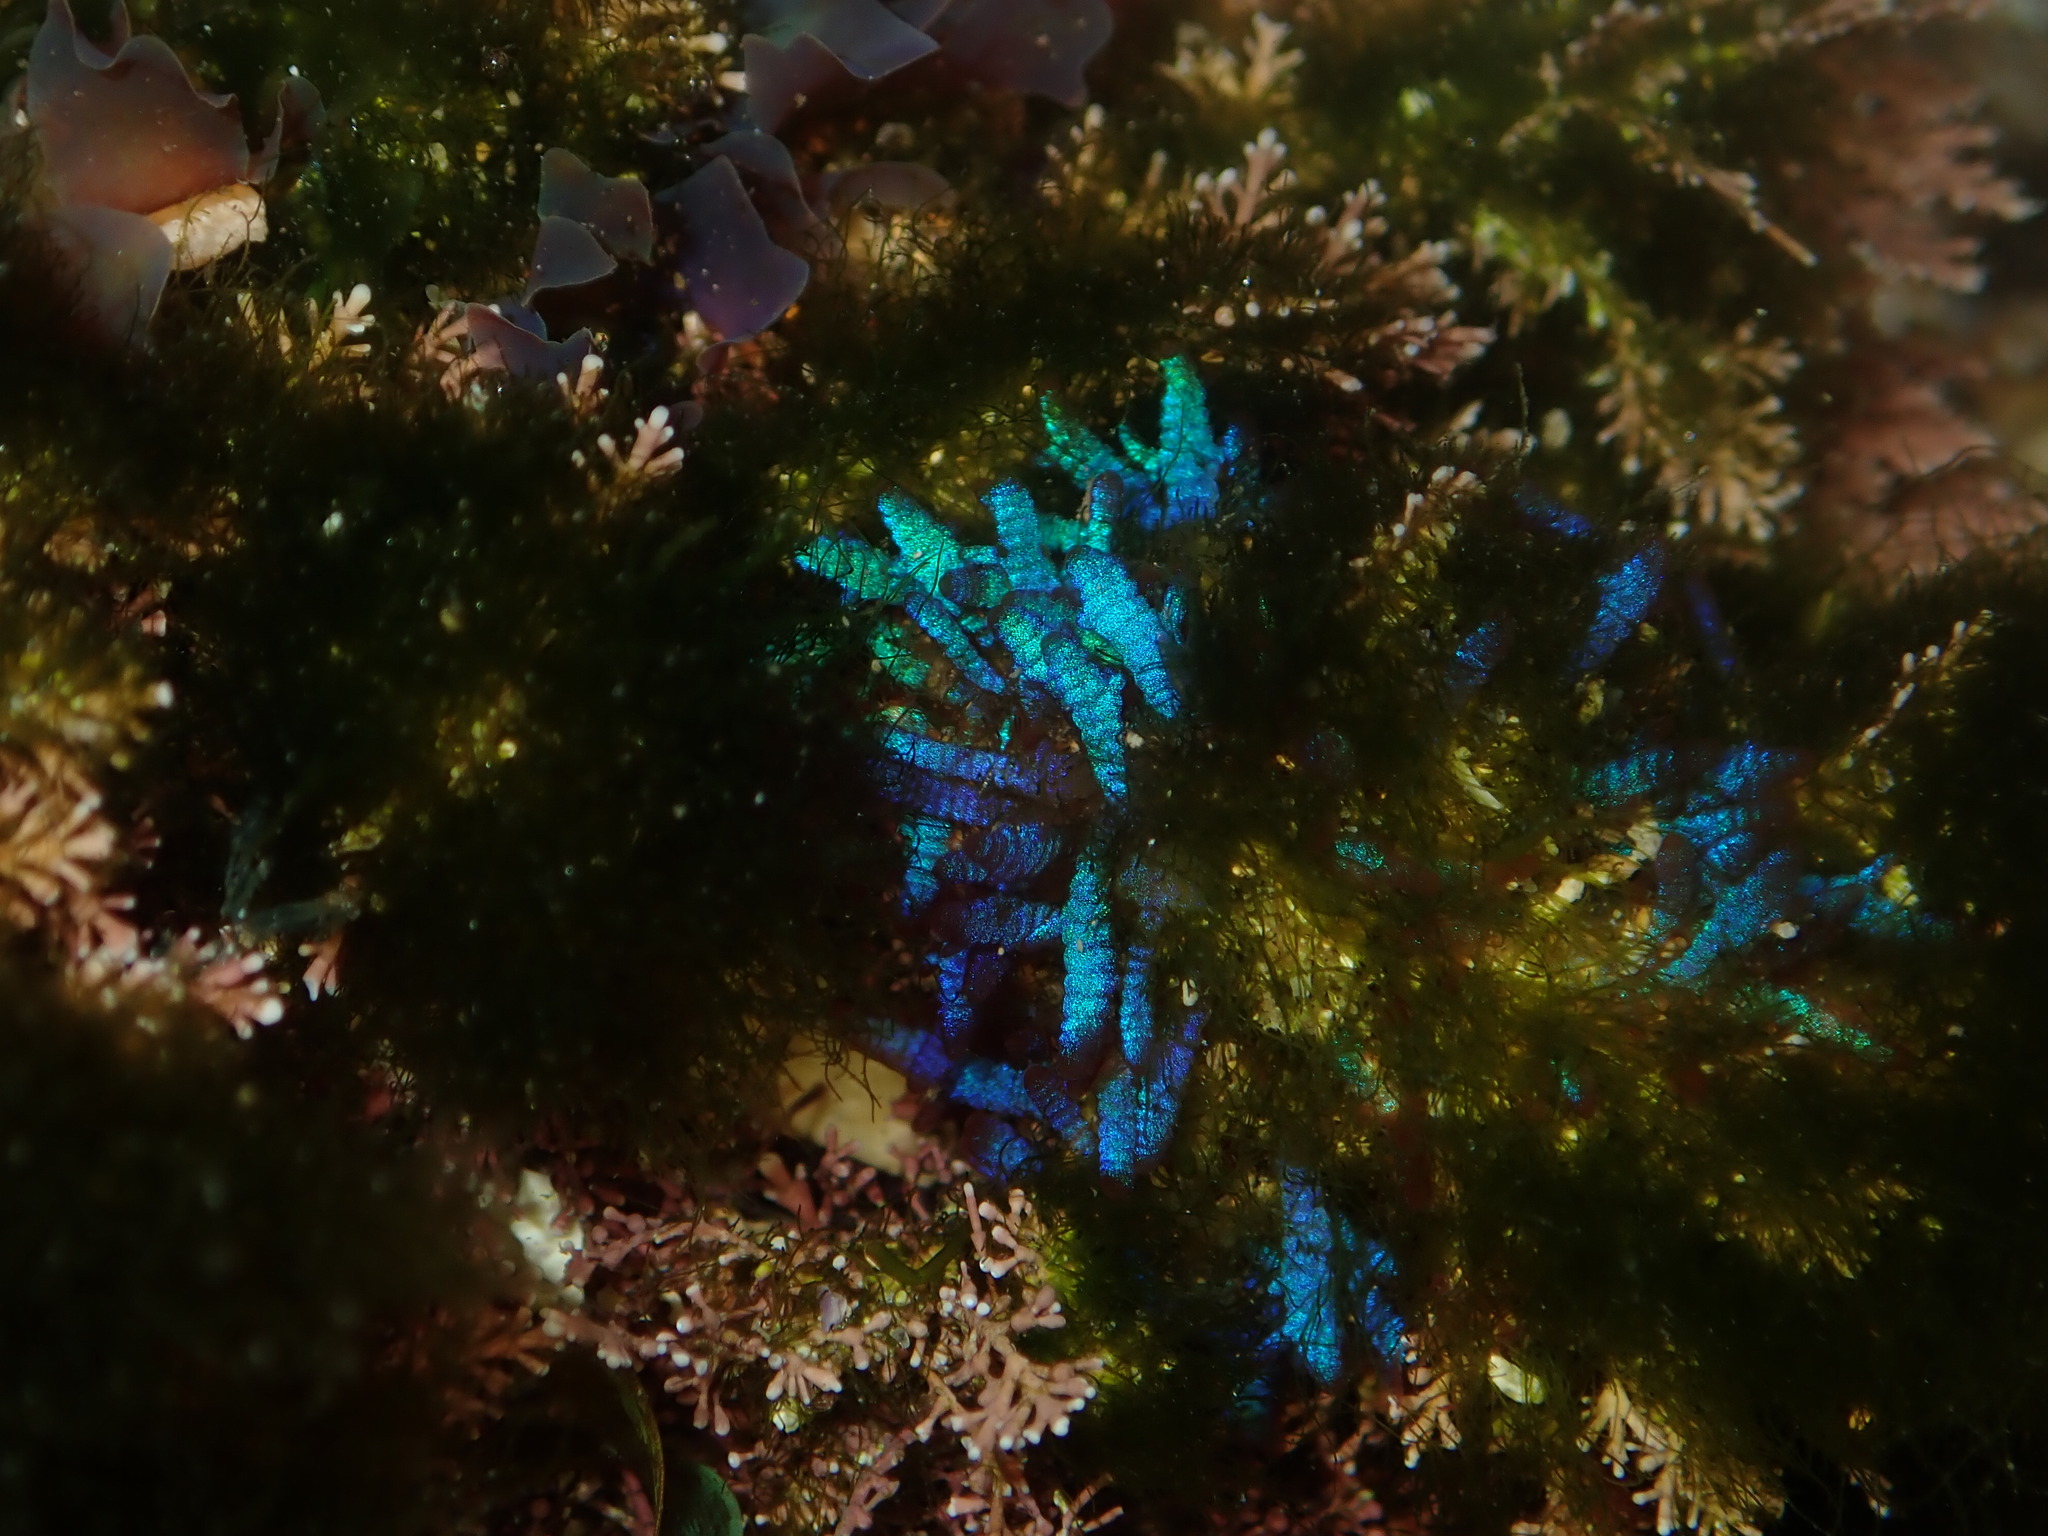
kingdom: Plantae
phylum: Rhodophyta
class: Florideophyceae
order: Rhodymeniales
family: Champiaceae
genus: Champia
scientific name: Champia laingii
